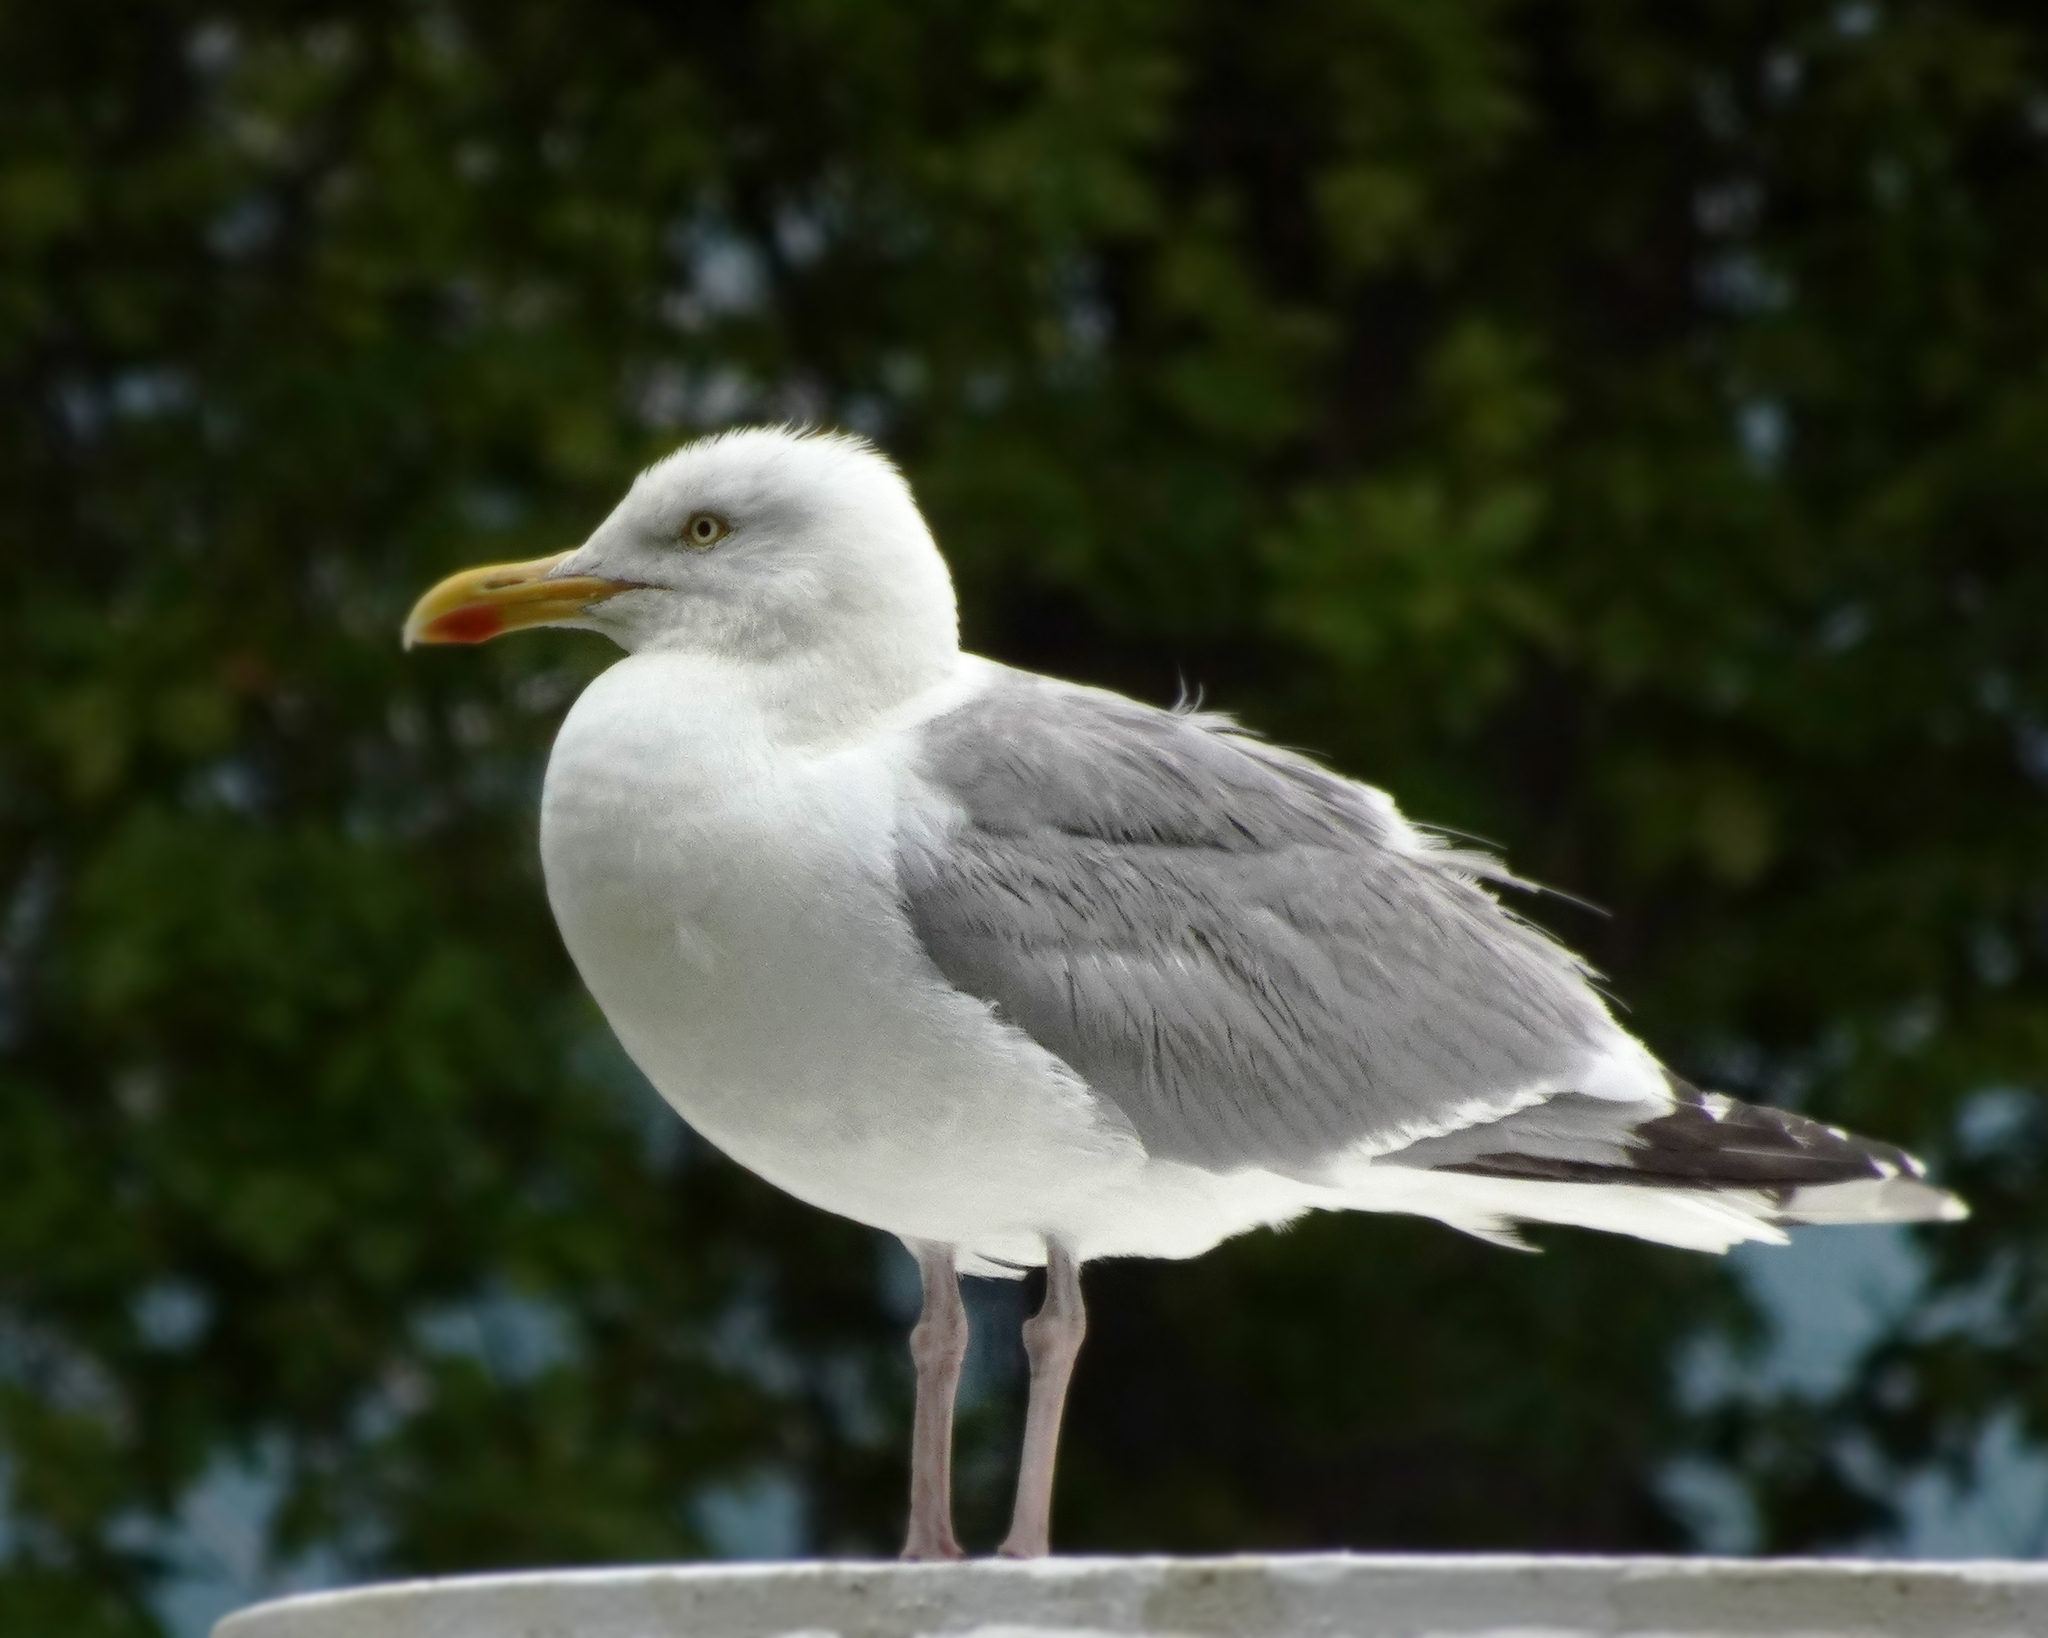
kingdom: Animalia
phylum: Chordata
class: Aves
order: Charadriiformes
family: Laridae
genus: Larus
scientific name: Larus argentatus
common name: Herring gull
